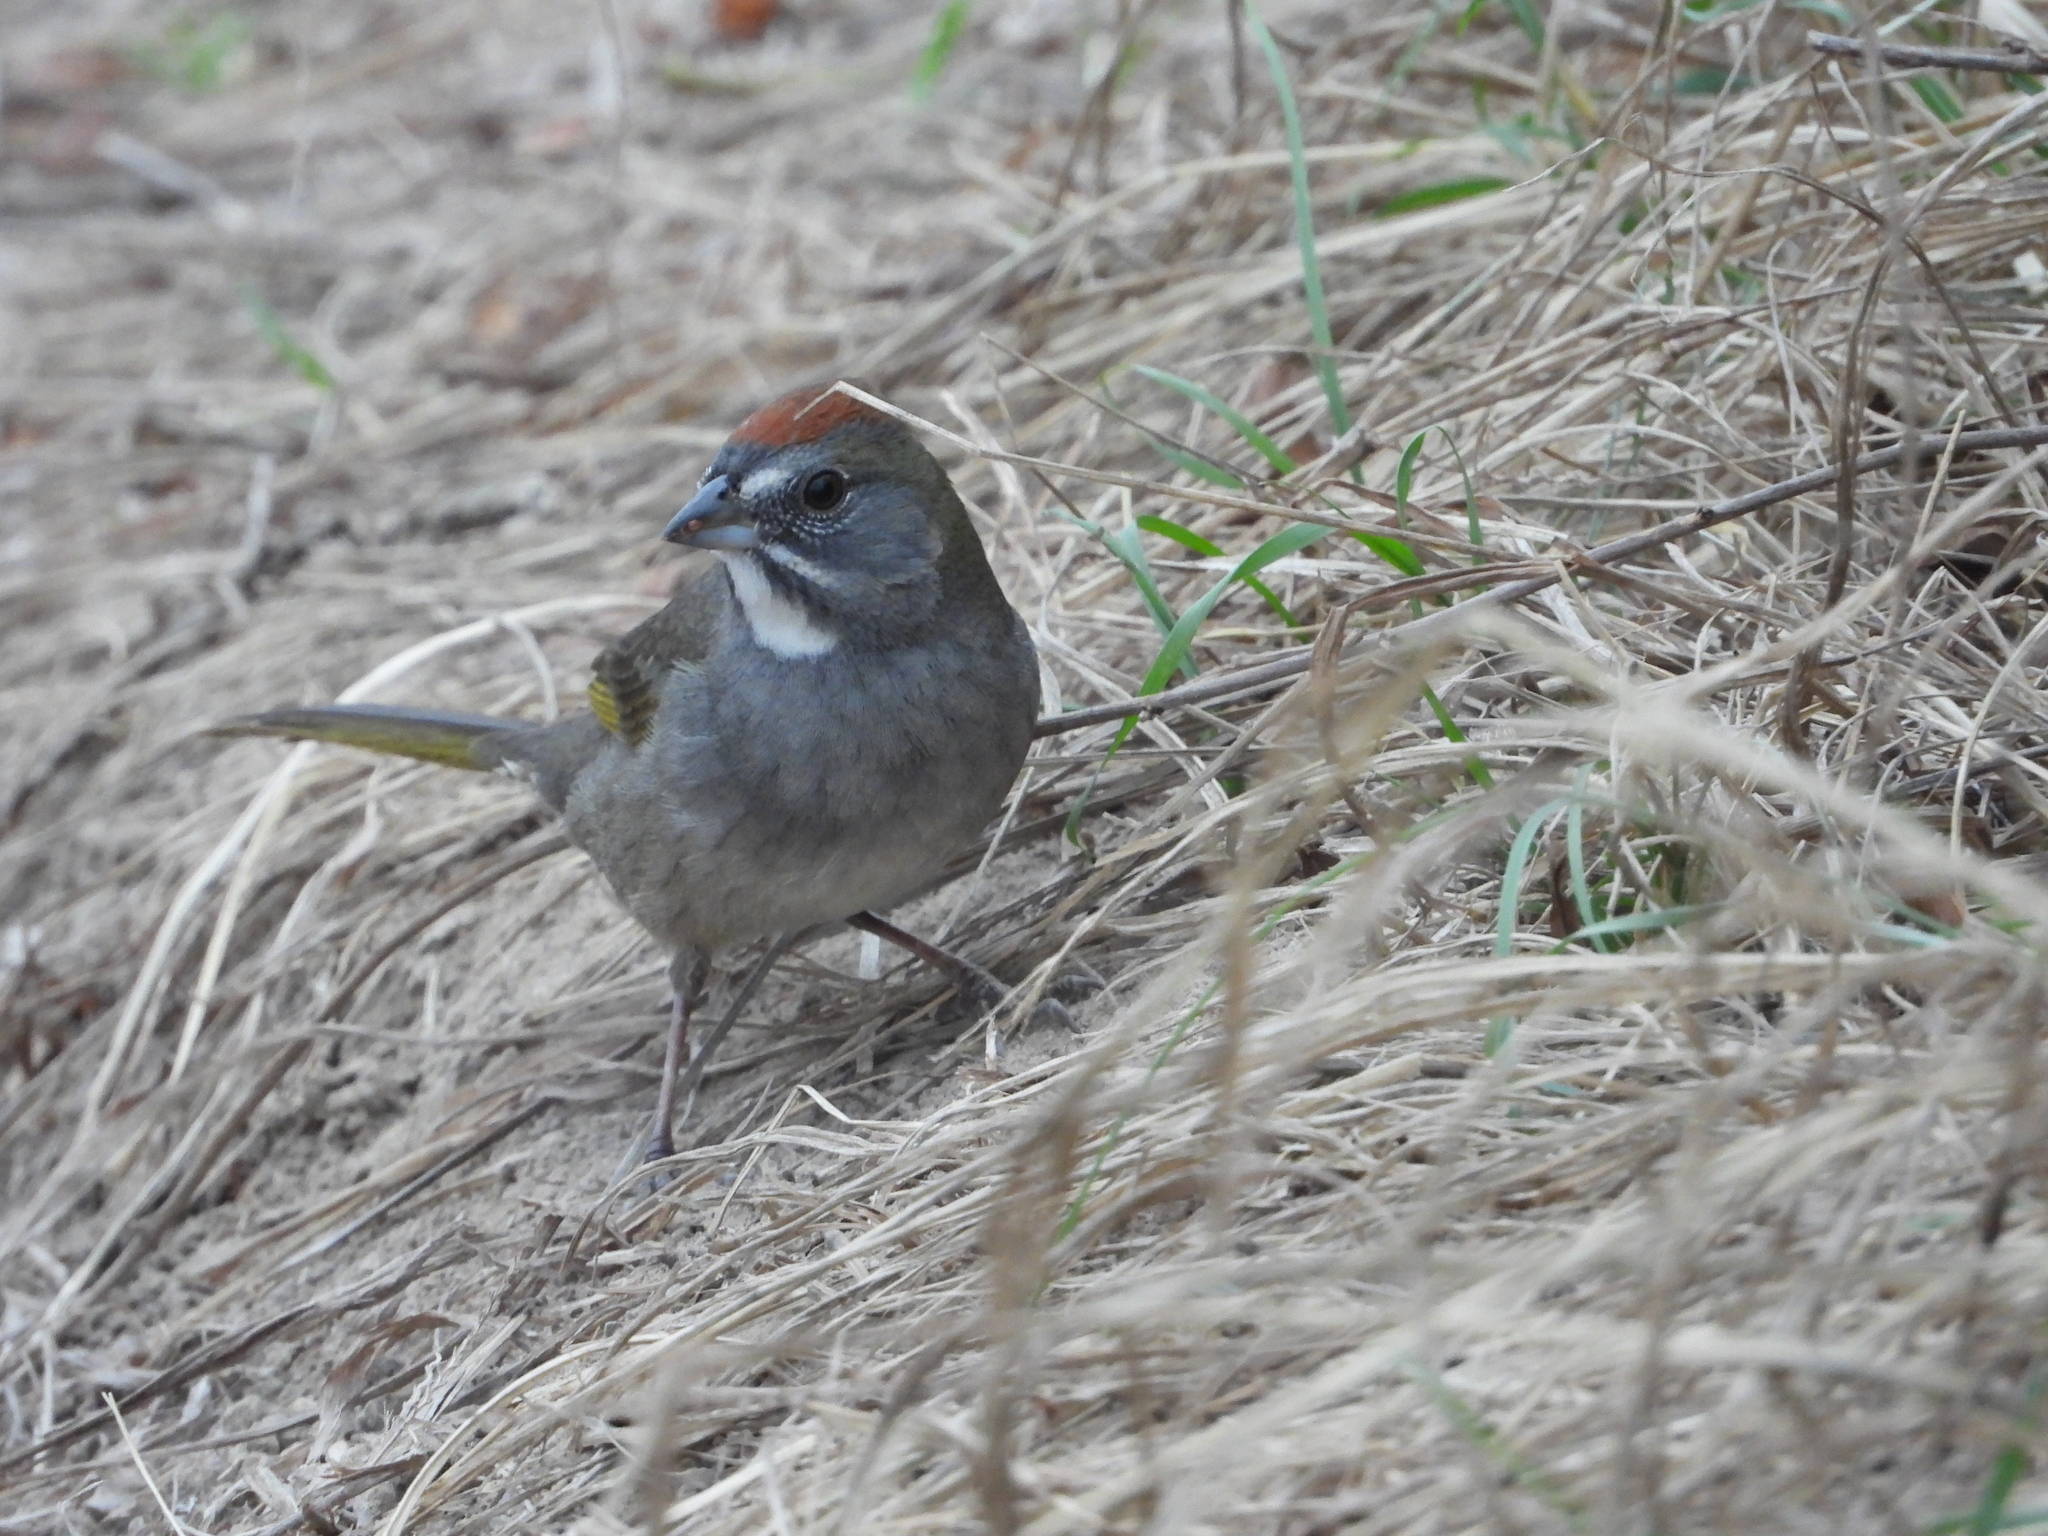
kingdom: Animalia
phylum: Chordata
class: Aves
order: Passeriformes
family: Passerellidae
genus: Pipilo
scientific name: Pipilo chlorurus
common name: Green-tailed towhee
